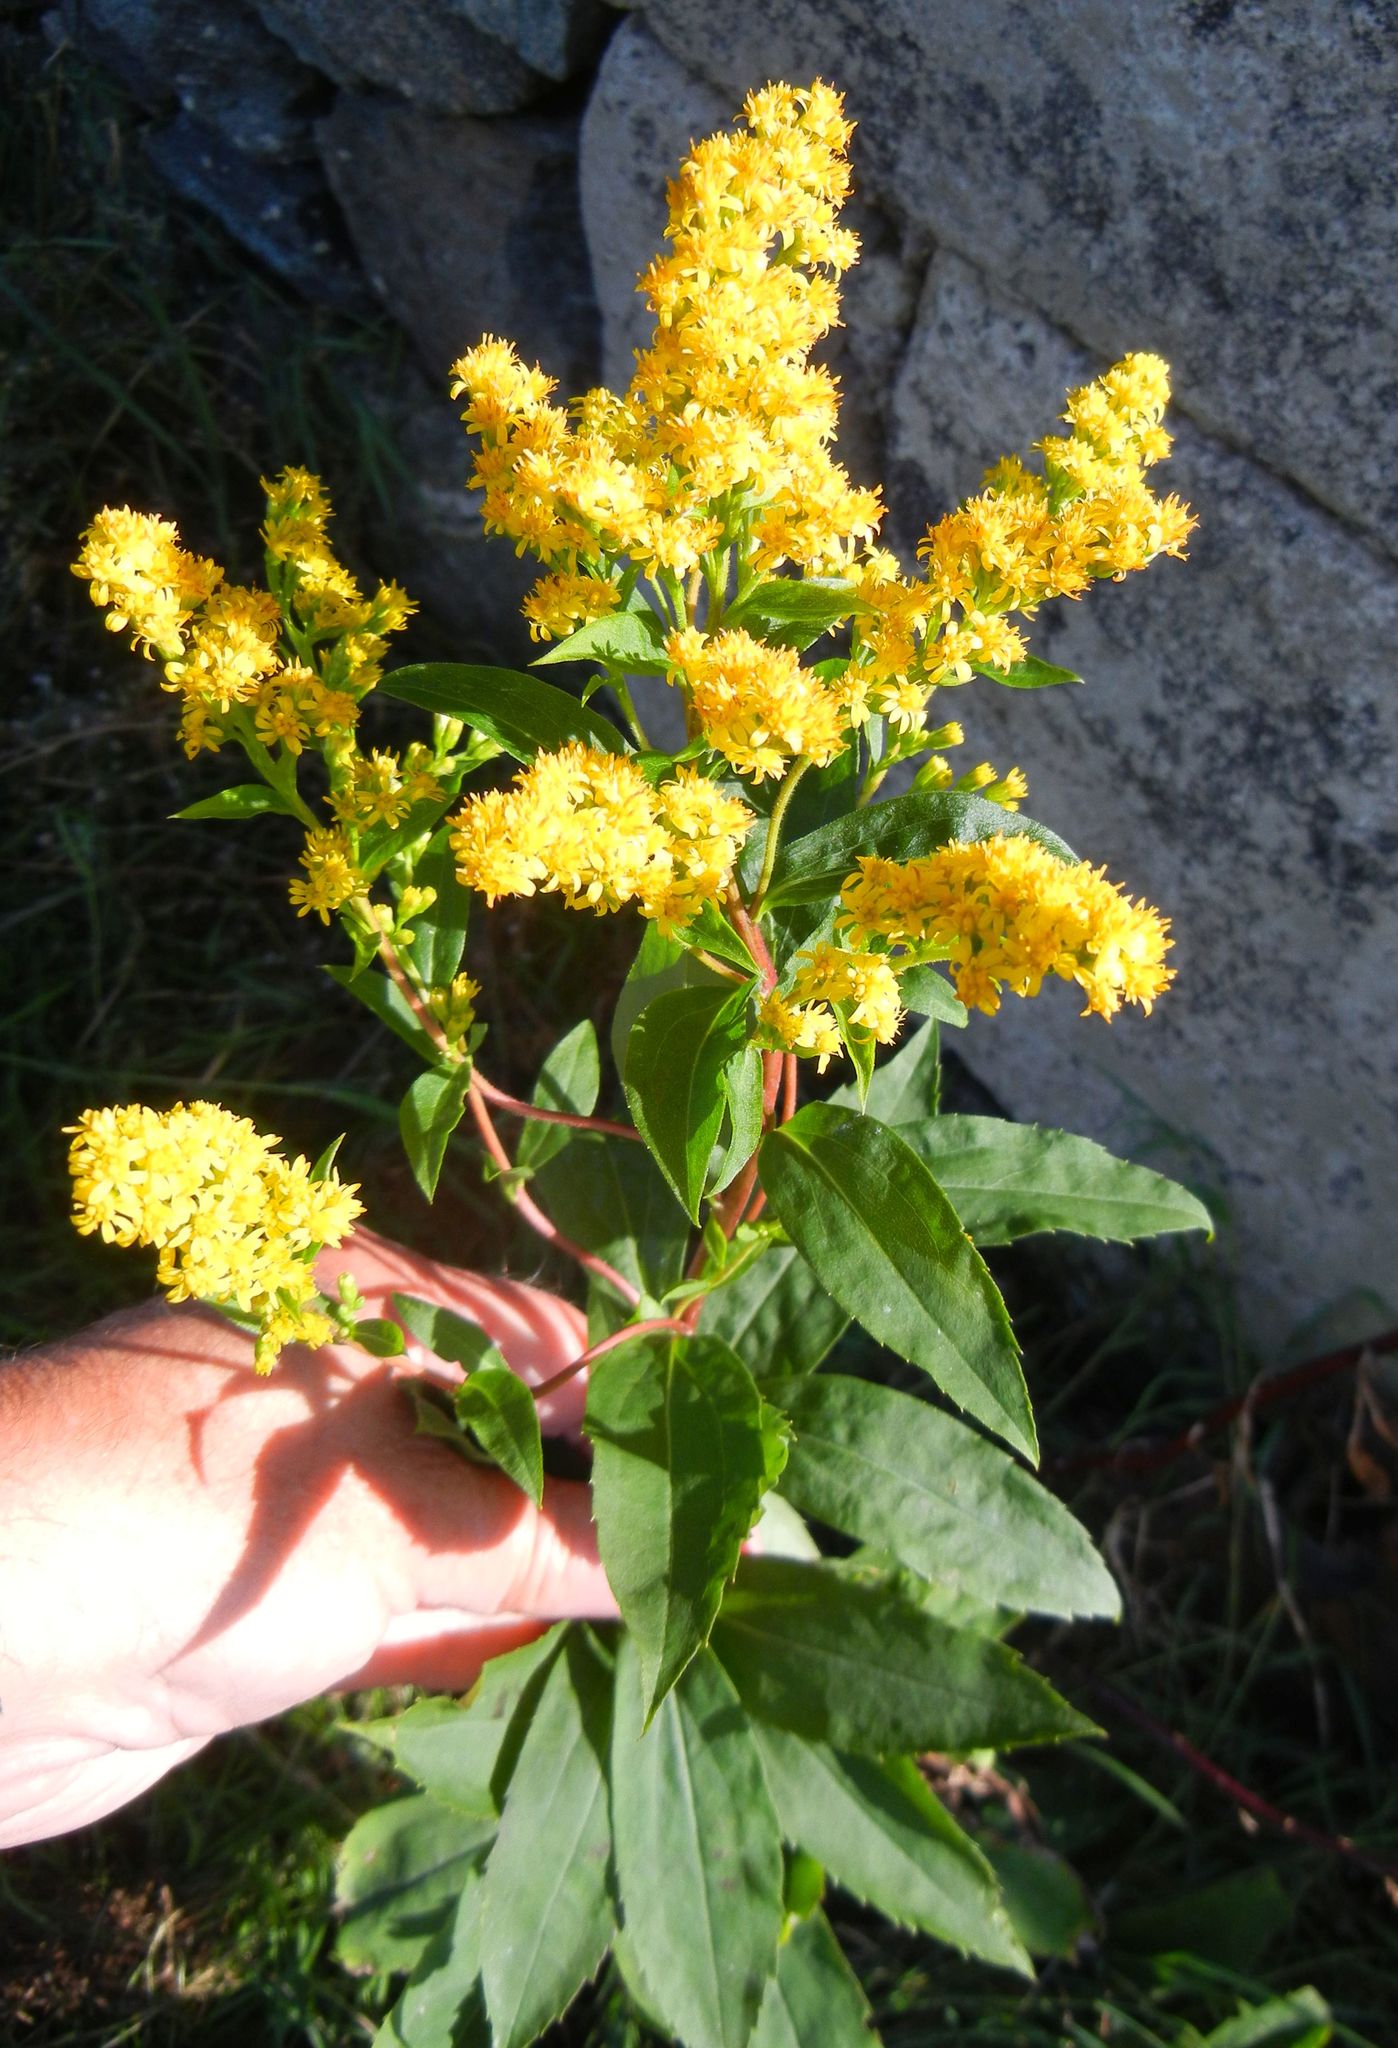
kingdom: Plantae
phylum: Tracheophyta
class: Magnoliopsida
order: Asterales
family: Asteraceae
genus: Solidago
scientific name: Solidago virgaurea
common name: Goldenrod
